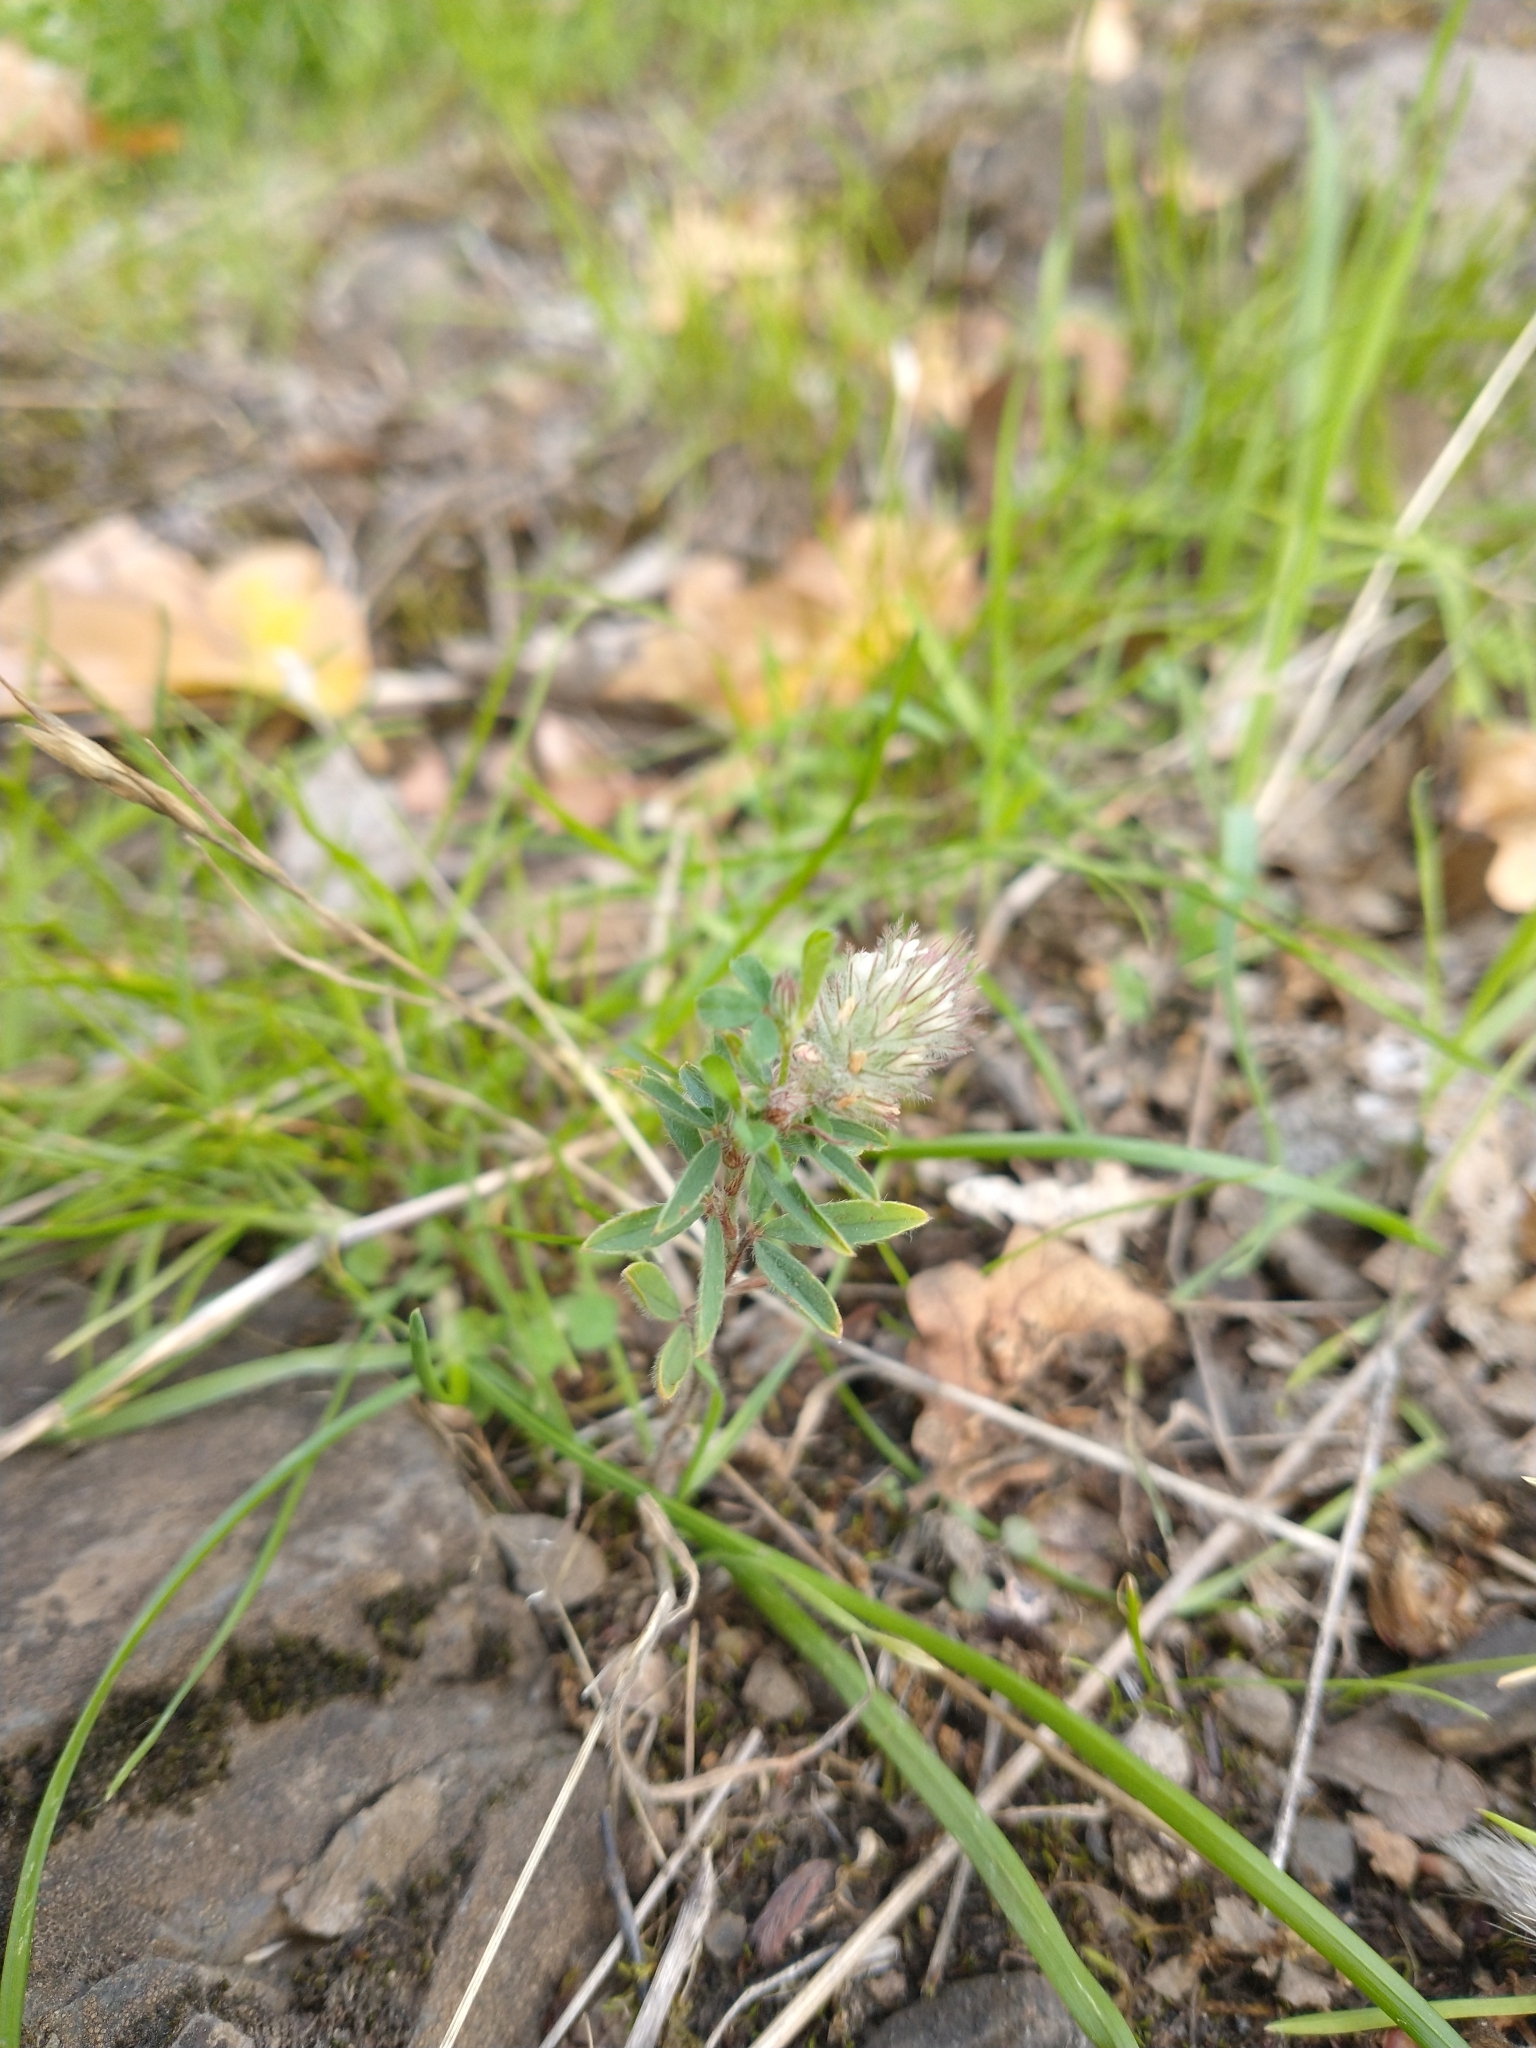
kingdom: Plantae
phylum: Tracheophyta
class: Magnoliopsida
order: Fabales
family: Fabaceae
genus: Trifolium
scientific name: Trifolium arvense
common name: Hare's-foot clover
